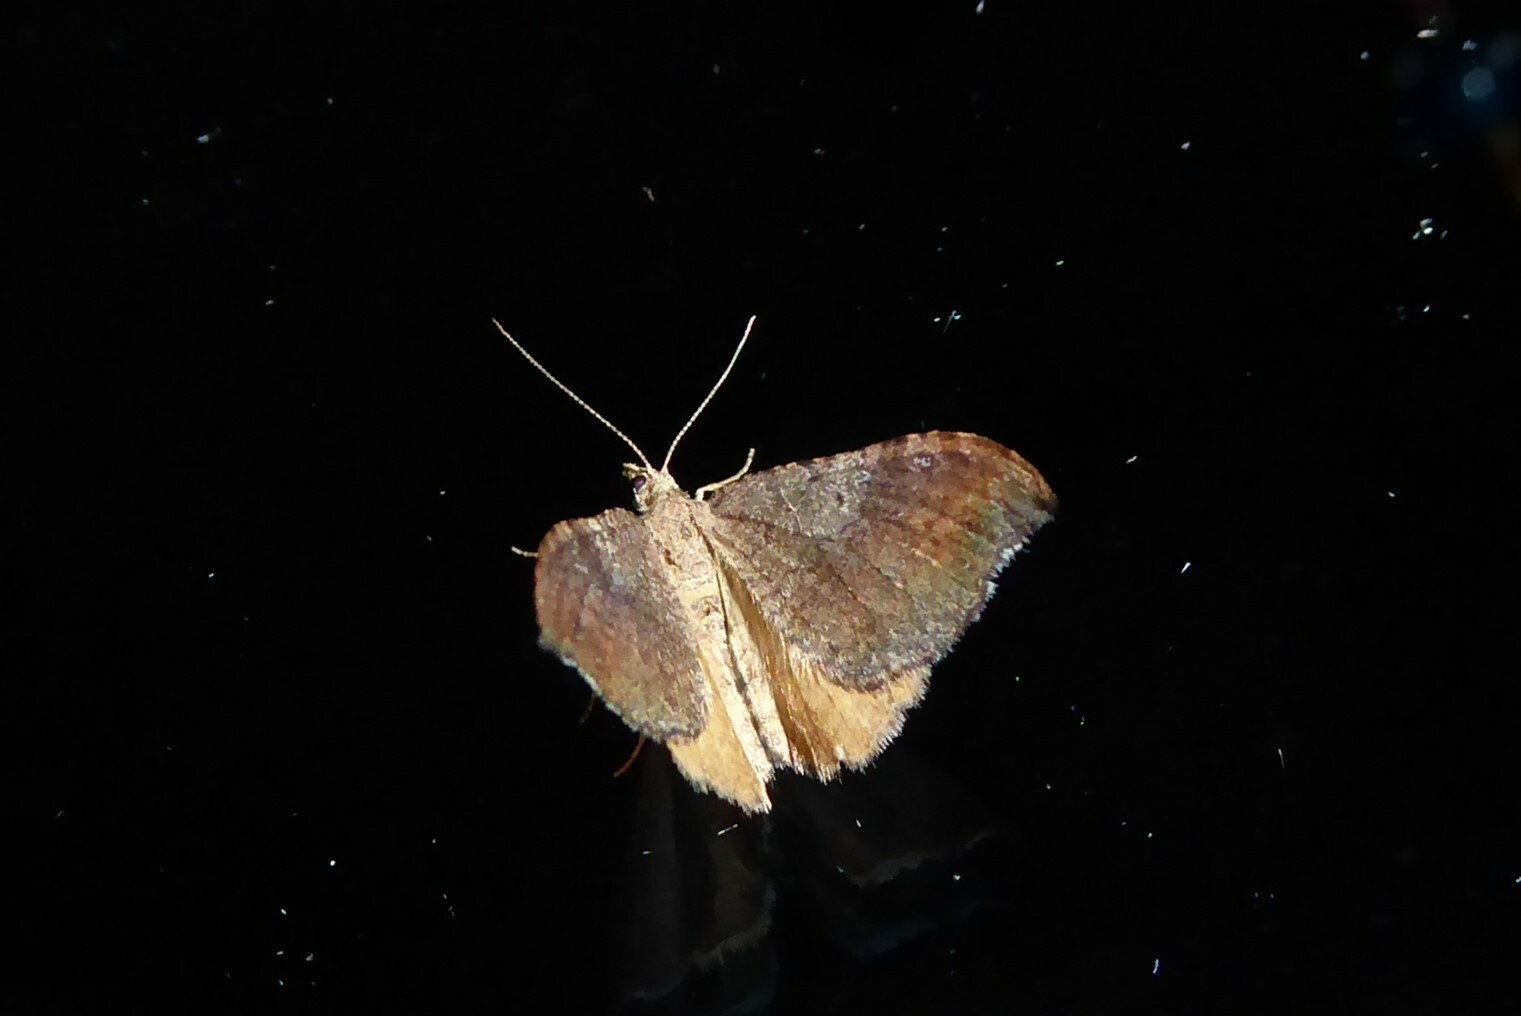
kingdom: Animalia
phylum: Arthropoda
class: Insecta
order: Lepidoptera
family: Geometridae
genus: Homodotis
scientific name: Homodotis megaspilata
